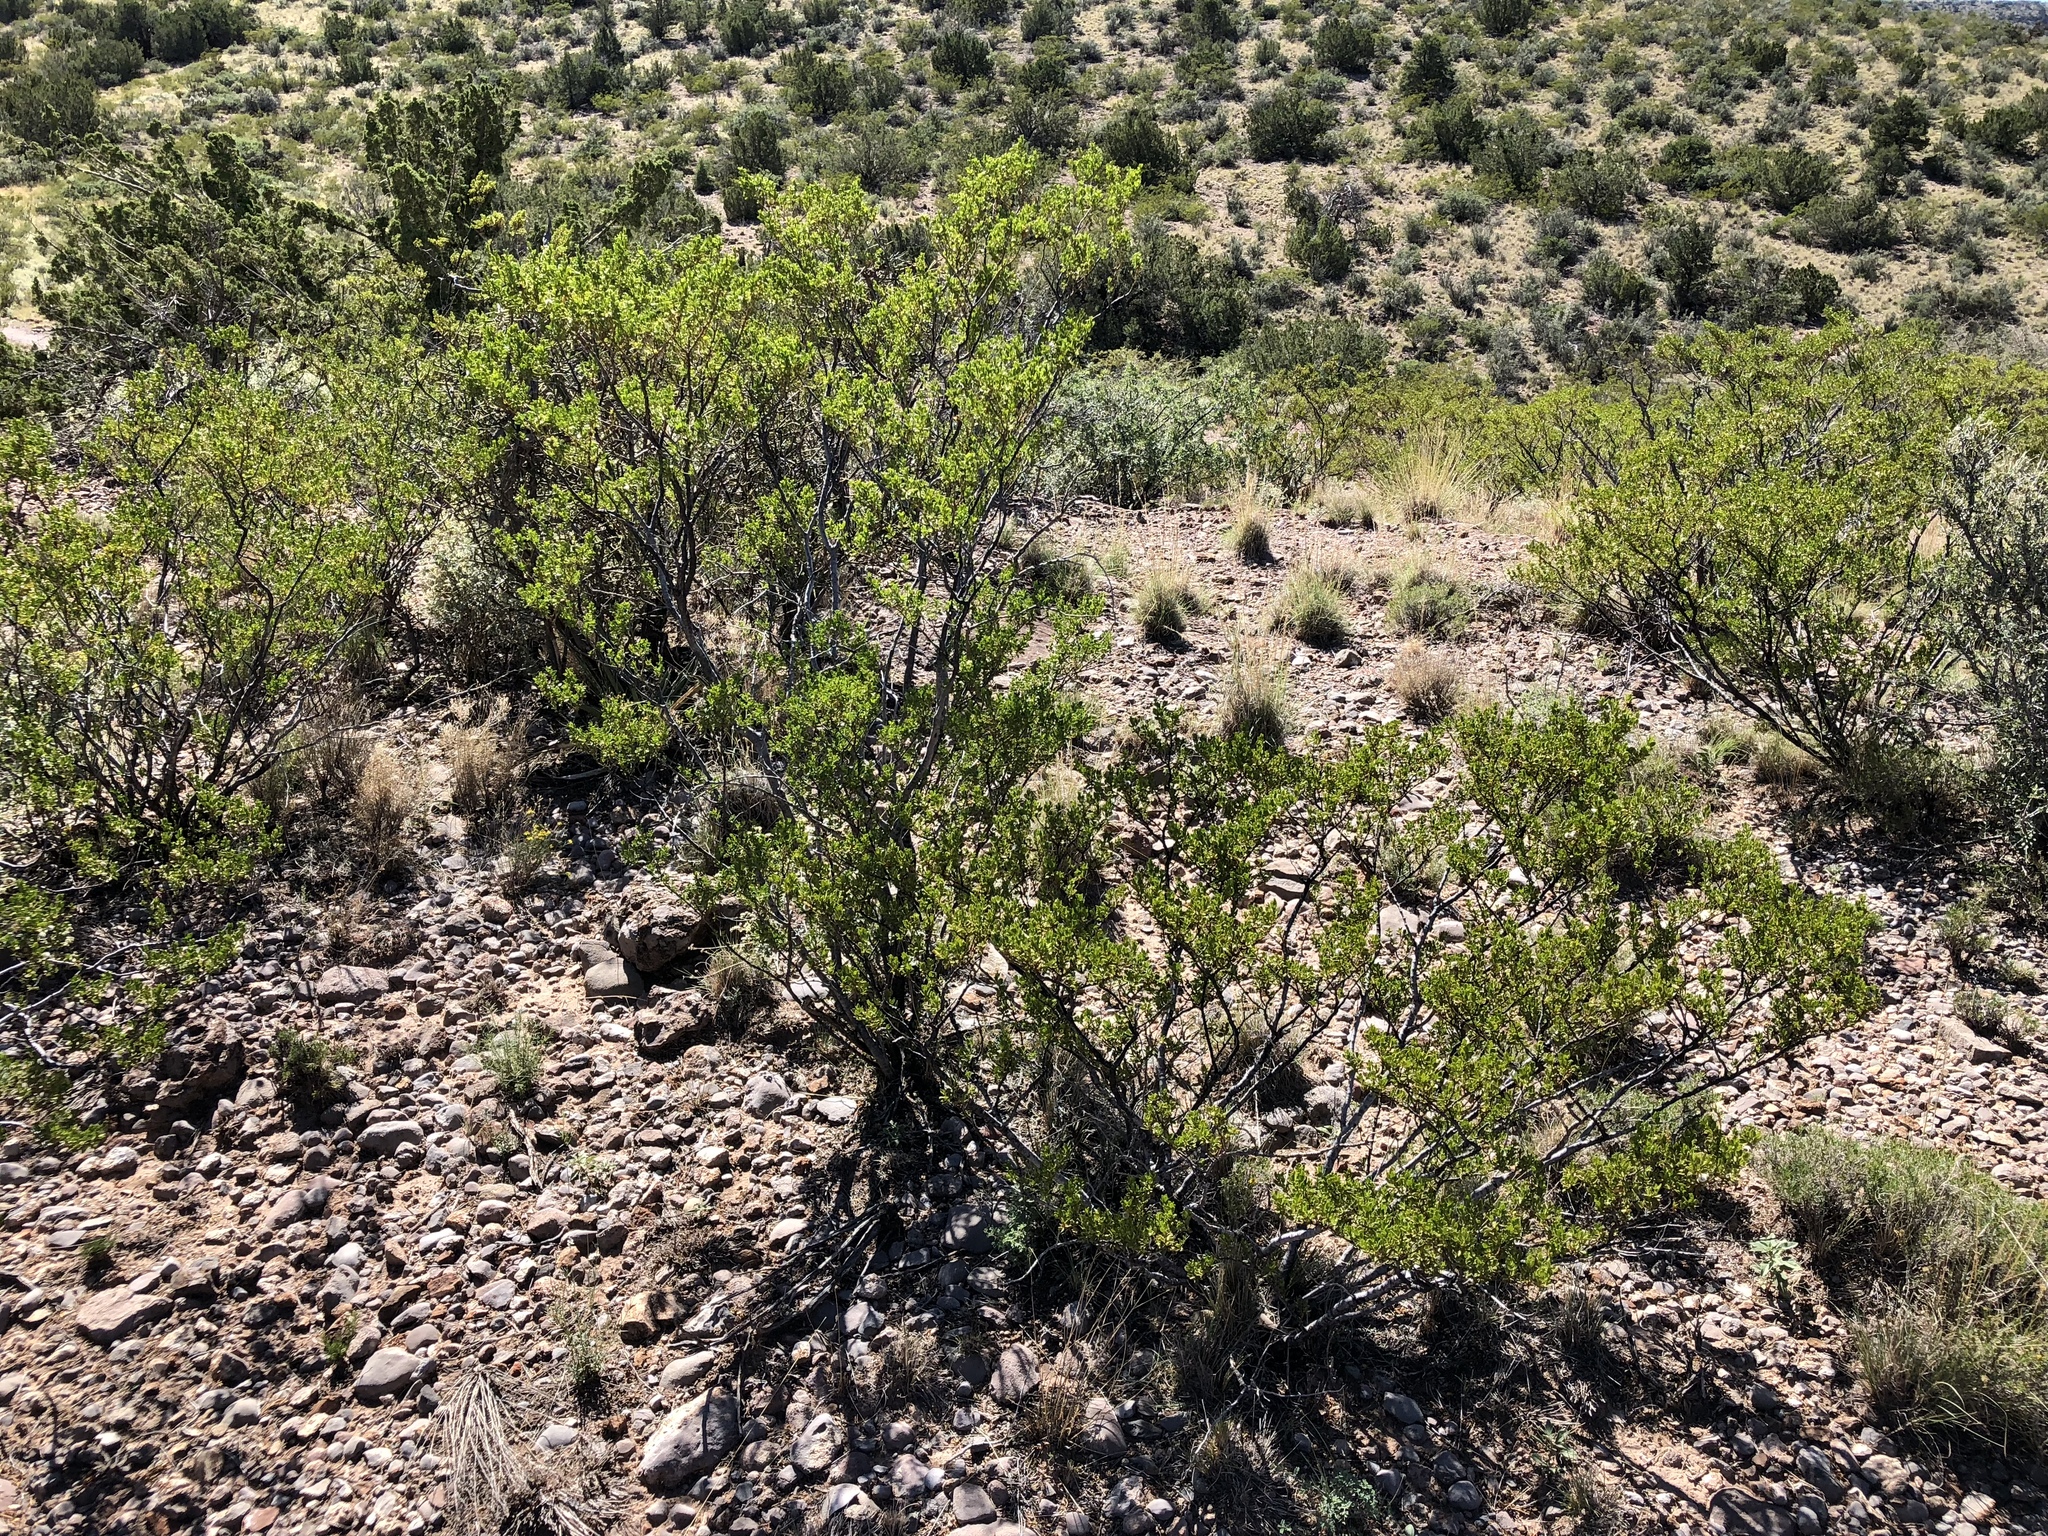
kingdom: Plantae
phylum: Tracheophyta
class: Magnoliopsida
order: Zygophyllales
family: Zygophyllaceae
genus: Larrea
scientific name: Larrea tridentata
